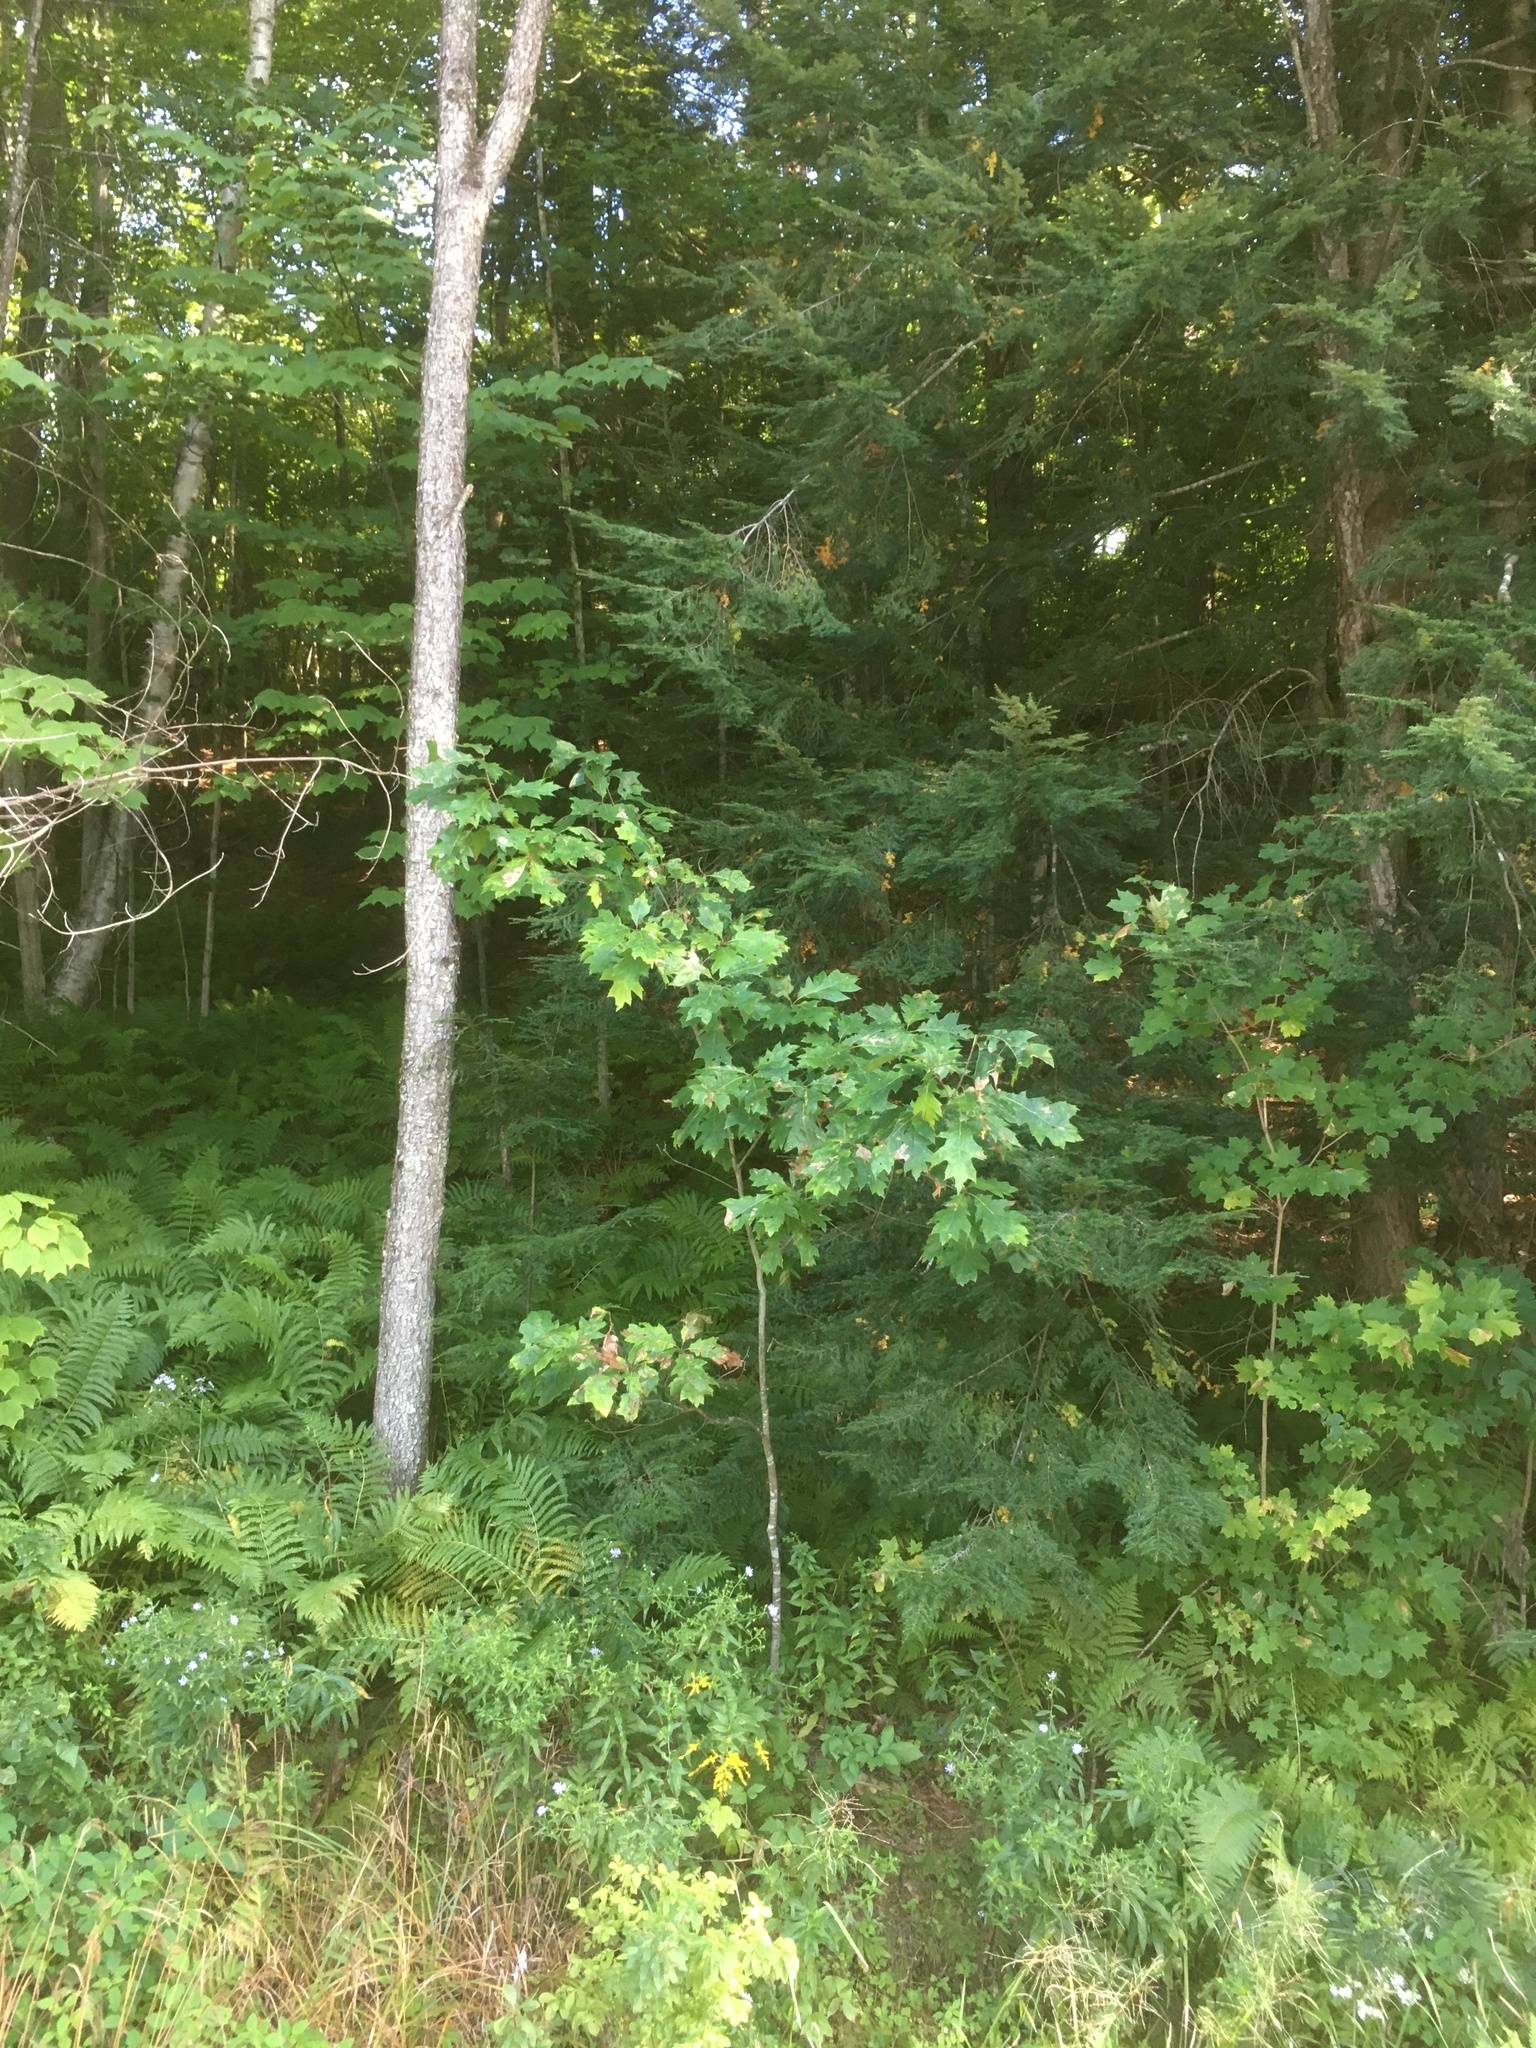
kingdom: Plantae
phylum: Tracheophyta
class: Magnoliopsida
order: Fagales
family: Fagaceae
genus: Quercus
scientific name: Quercus rubra
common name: Red oak
